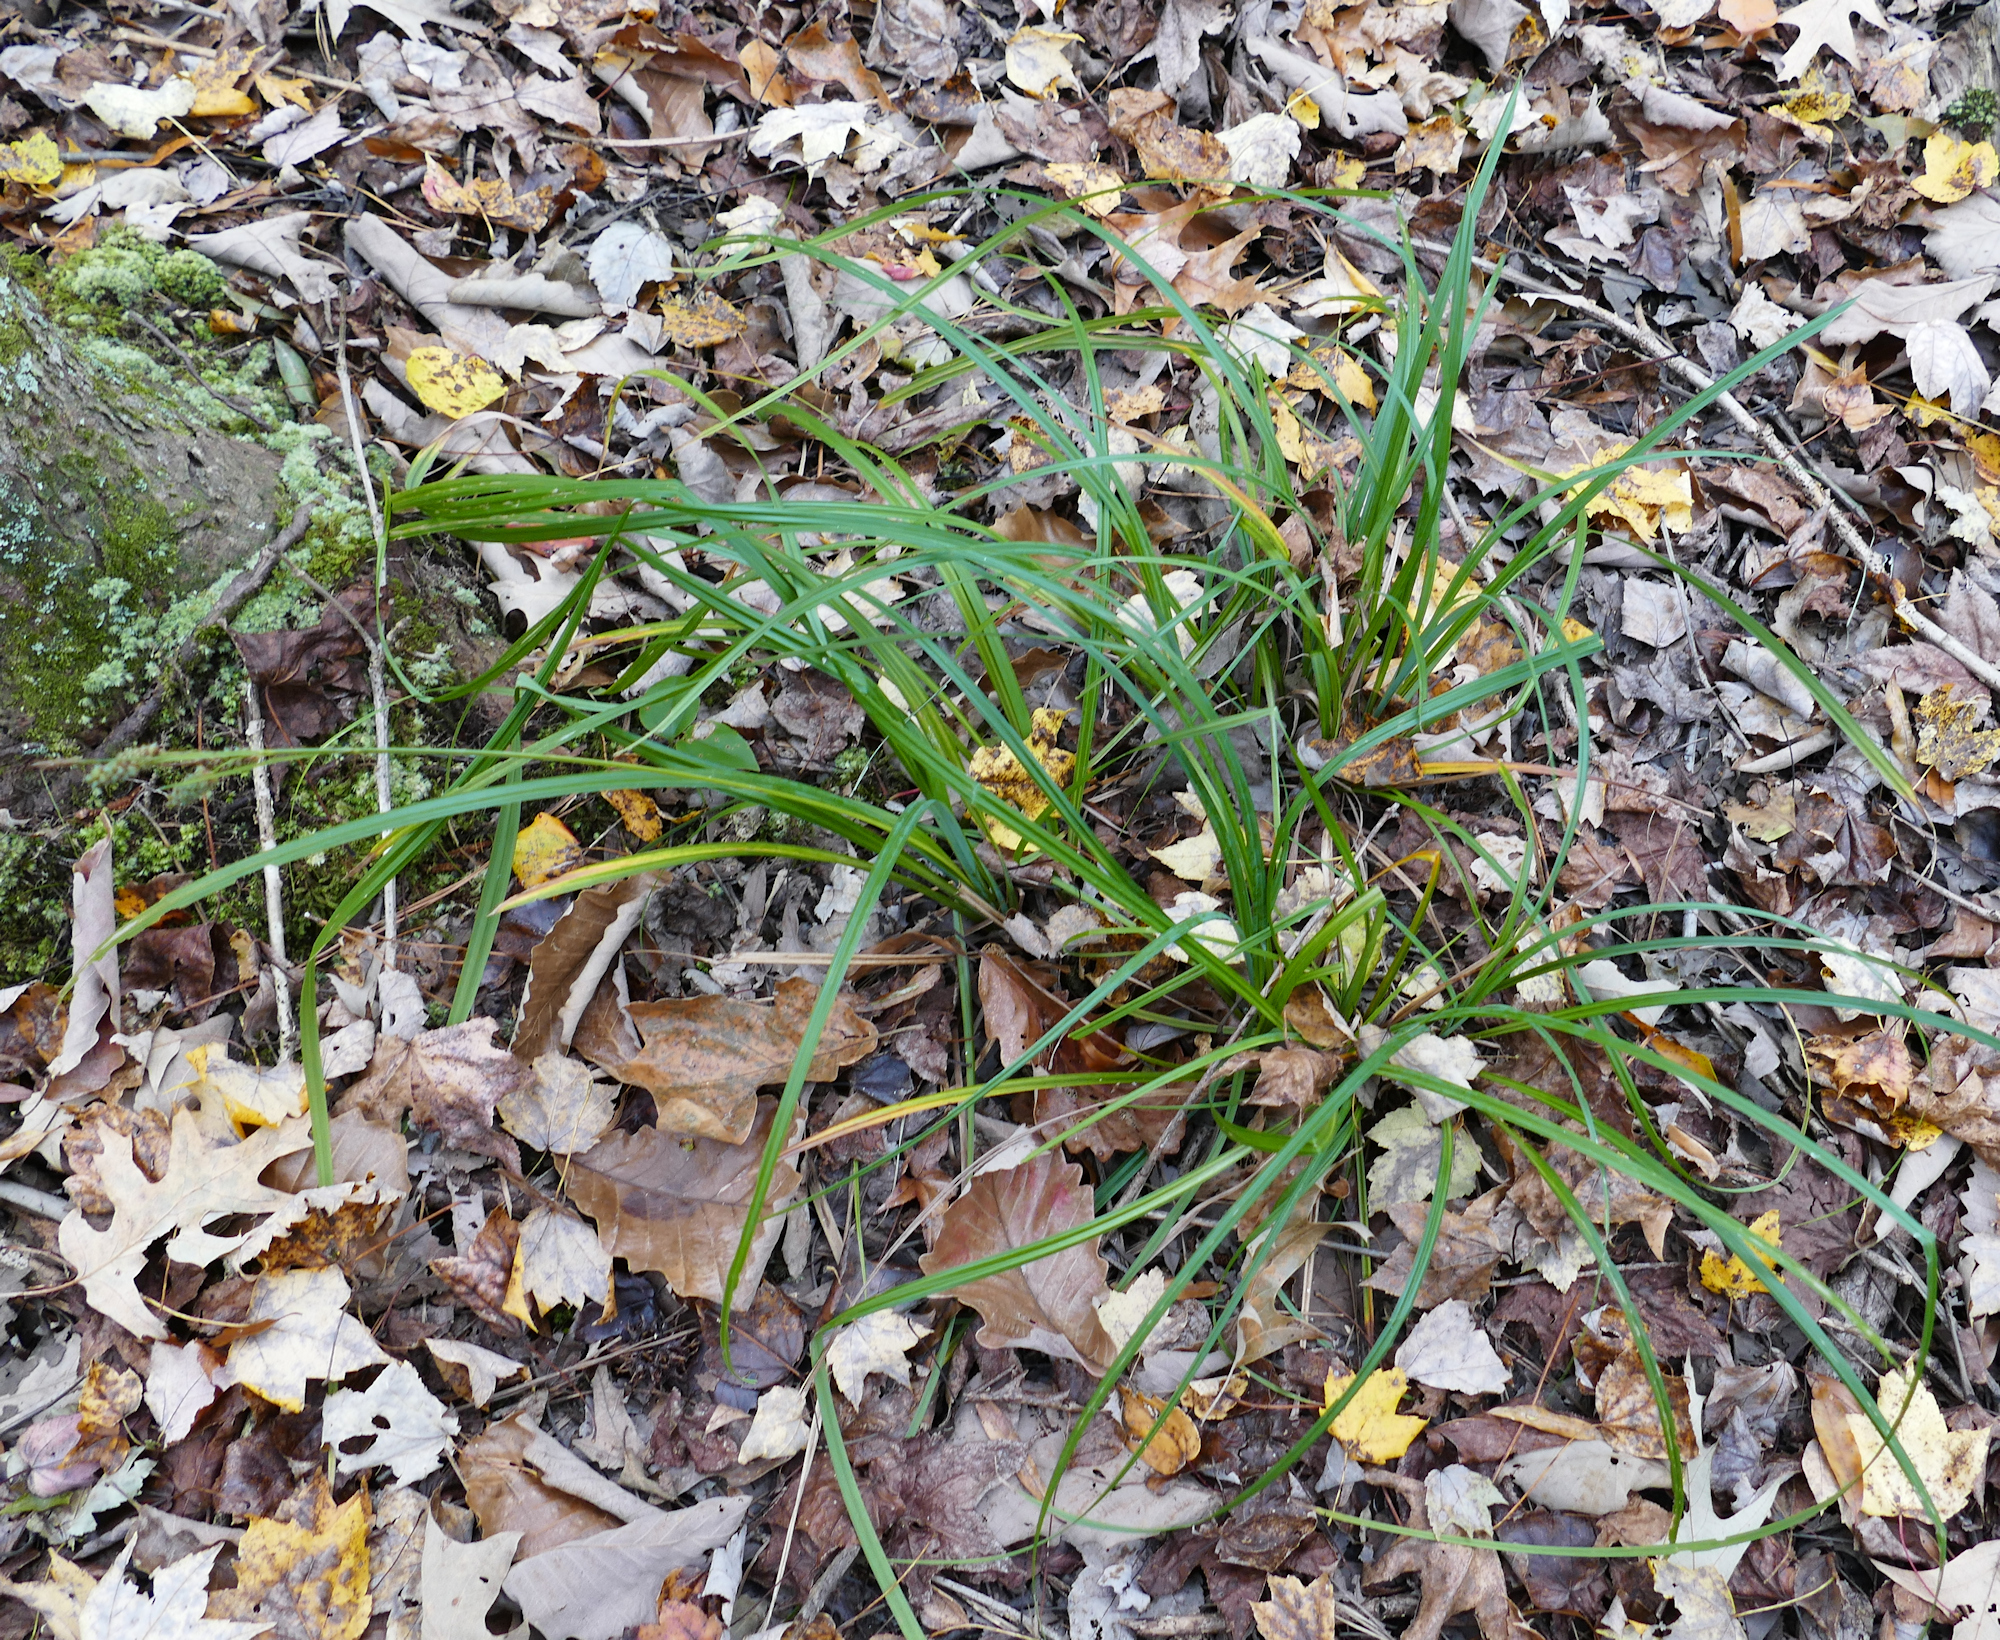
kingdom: Plantae
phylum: Tracheophyta
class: Liliopsida
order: Poales
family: Cyperaceae
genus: Carex
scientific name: Carex joorii
